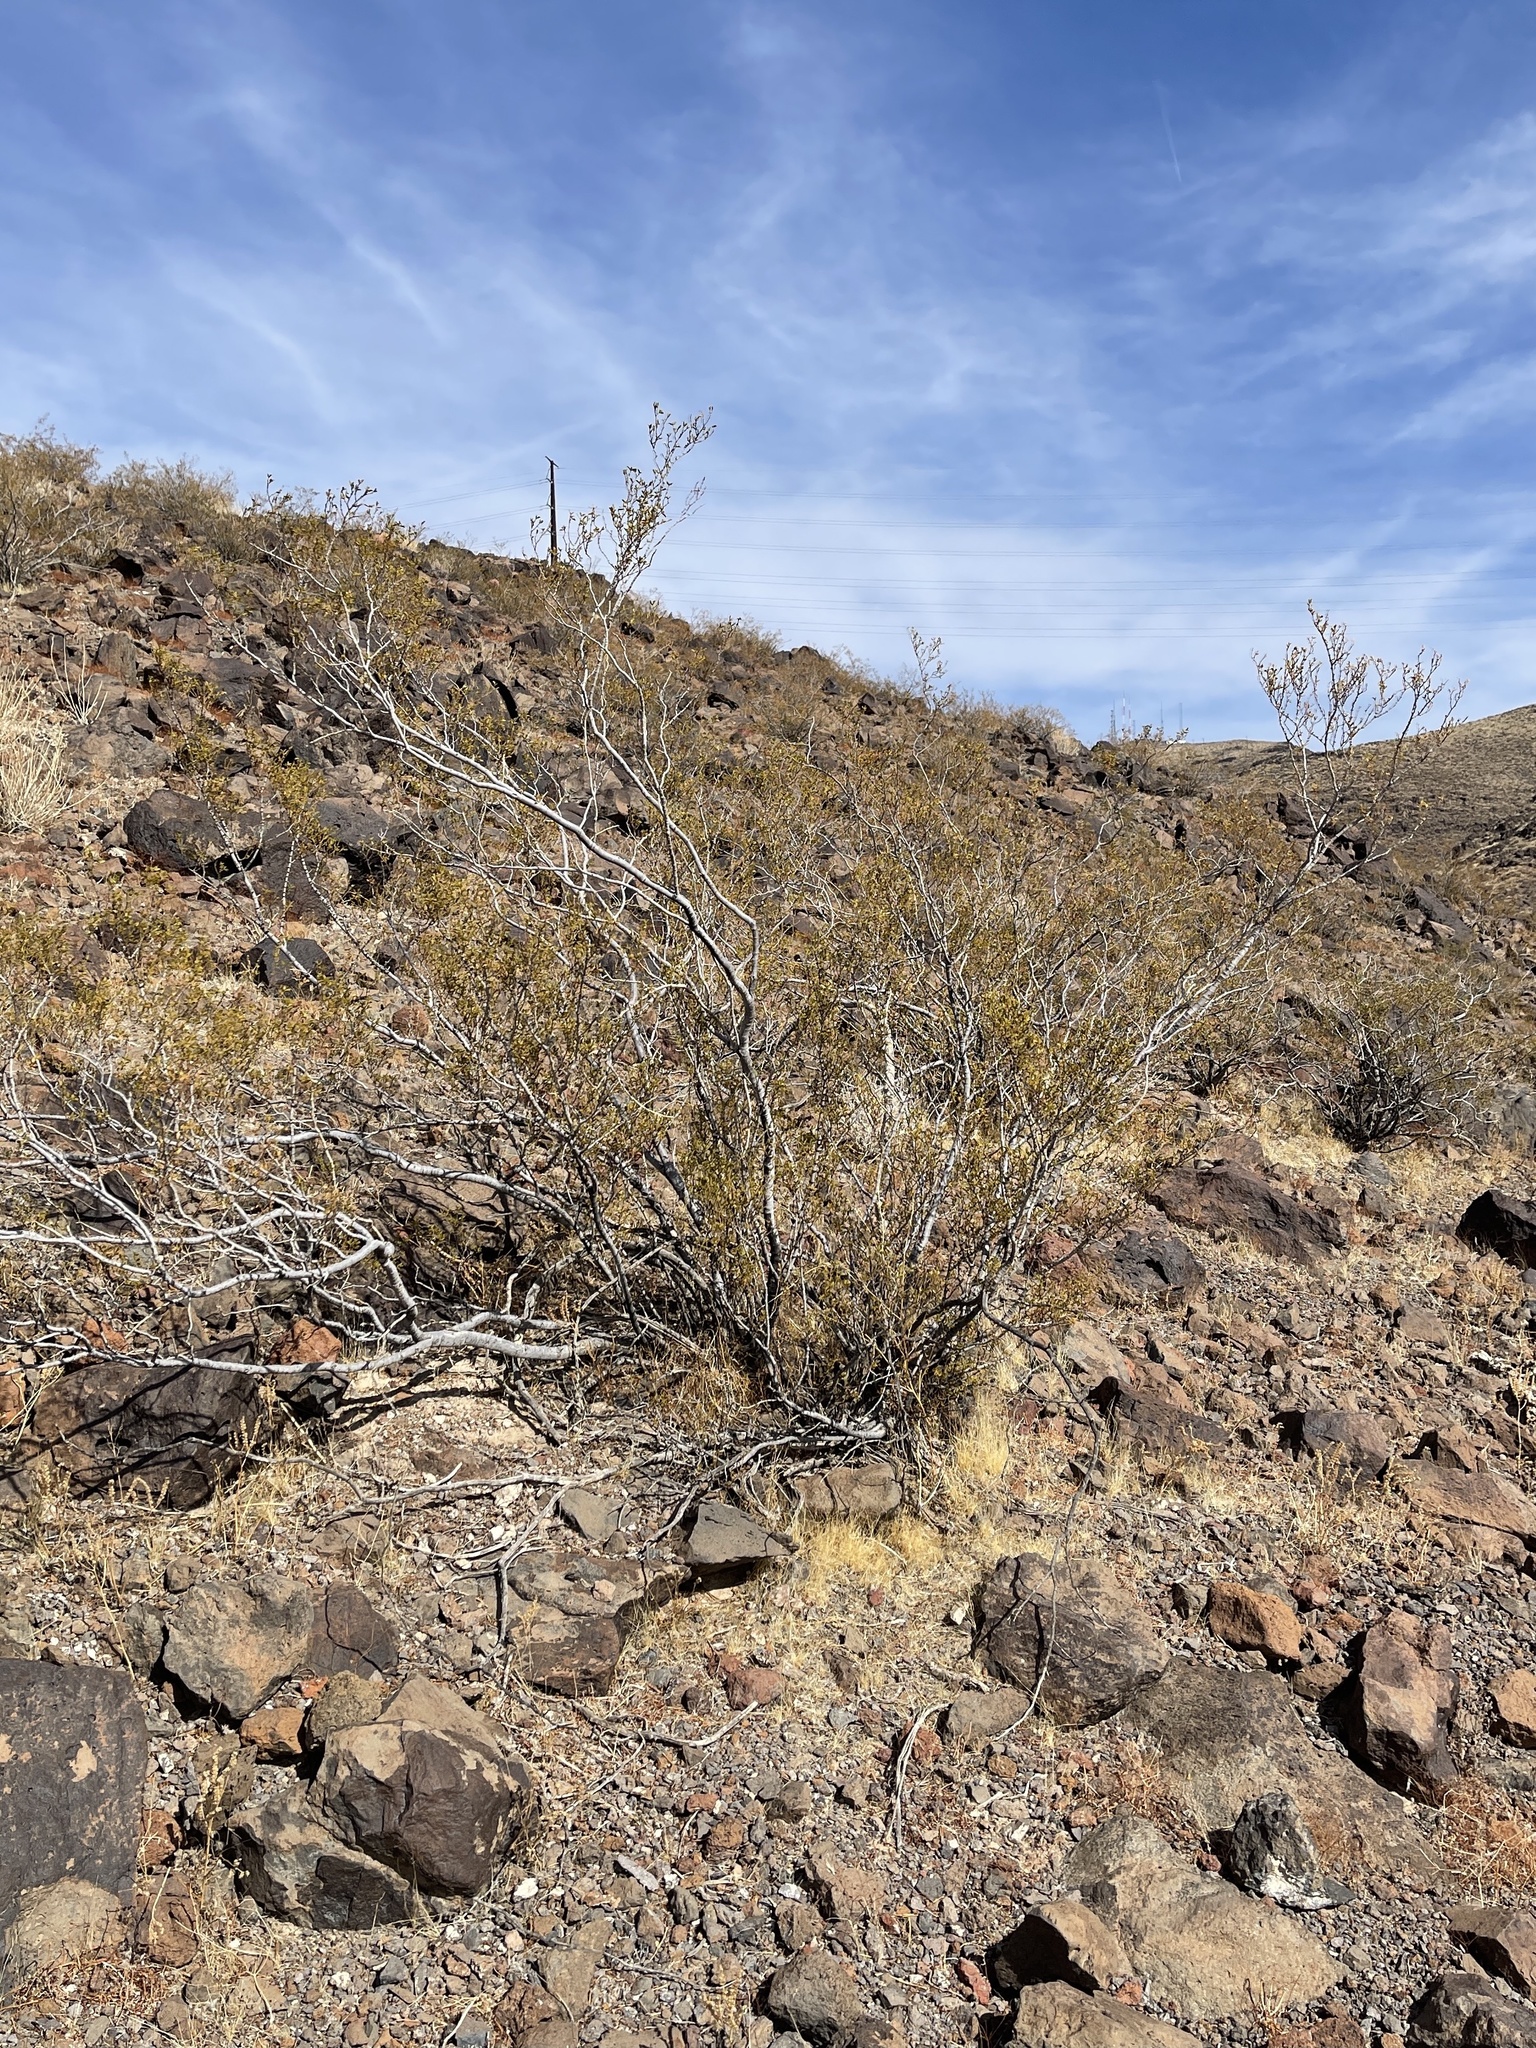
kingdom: Plantae
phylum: Tracheophyta
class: Magnoliopsida
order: Zygophyllales
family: Zygophyllaceae
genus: Larrea
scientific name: Larrea tridentata
